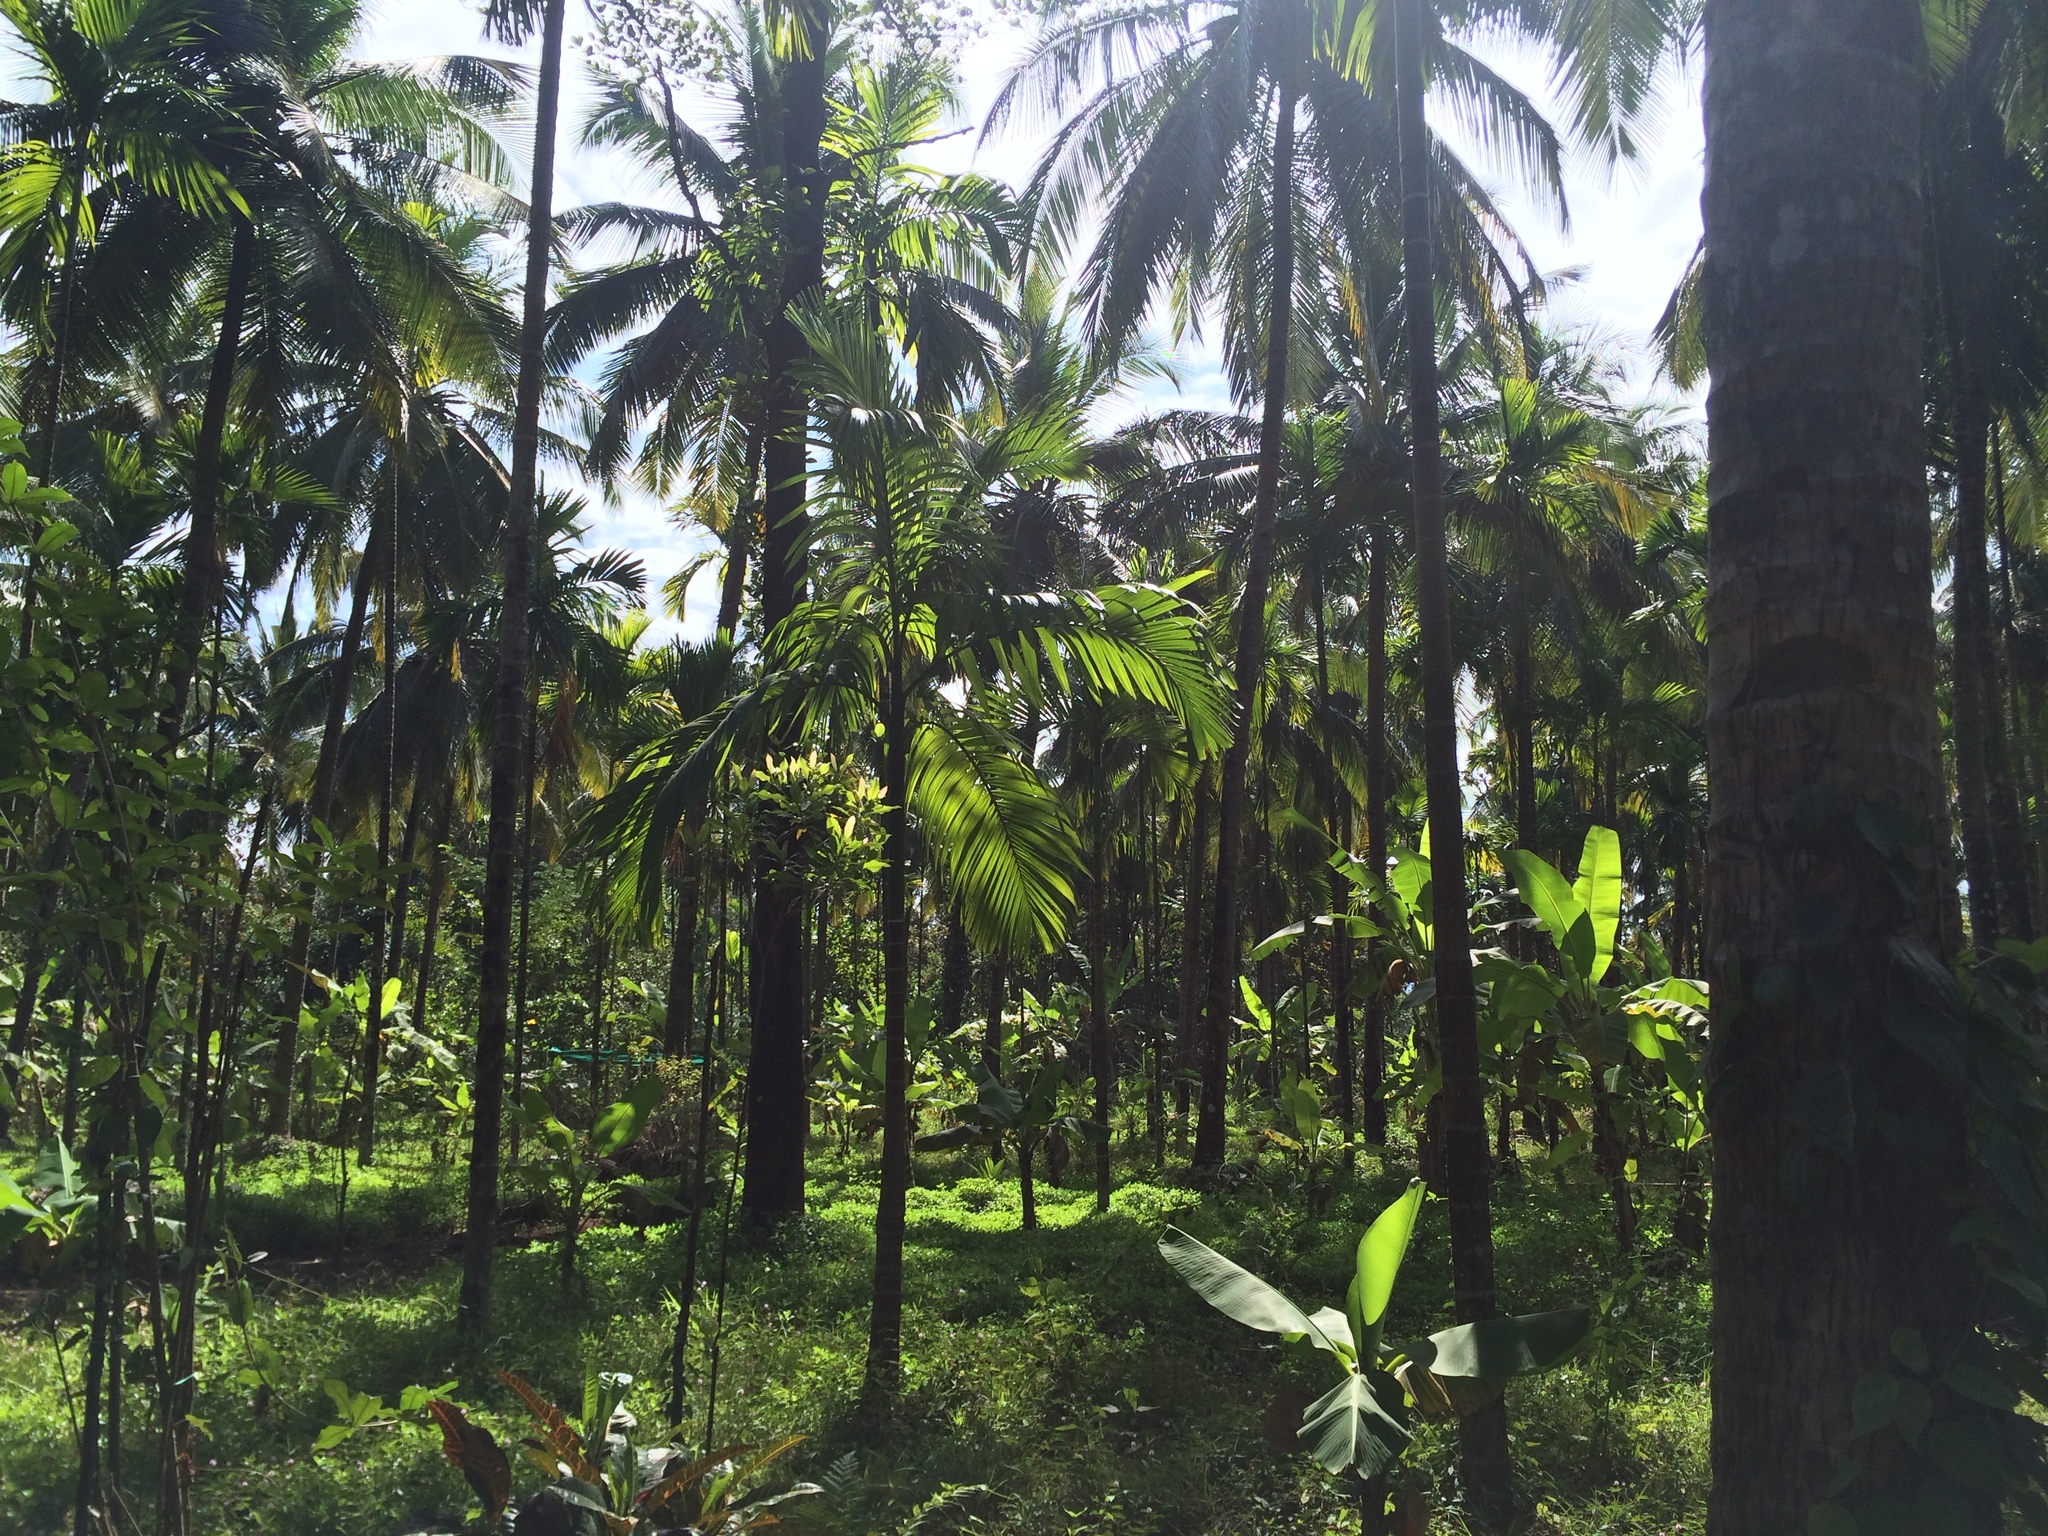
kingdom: Plantae
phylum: Tracheophyta
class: Liliopsida
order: Arecales
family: Arecaceae
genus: Areca
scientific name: Areca catechu
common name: Indian-nut
